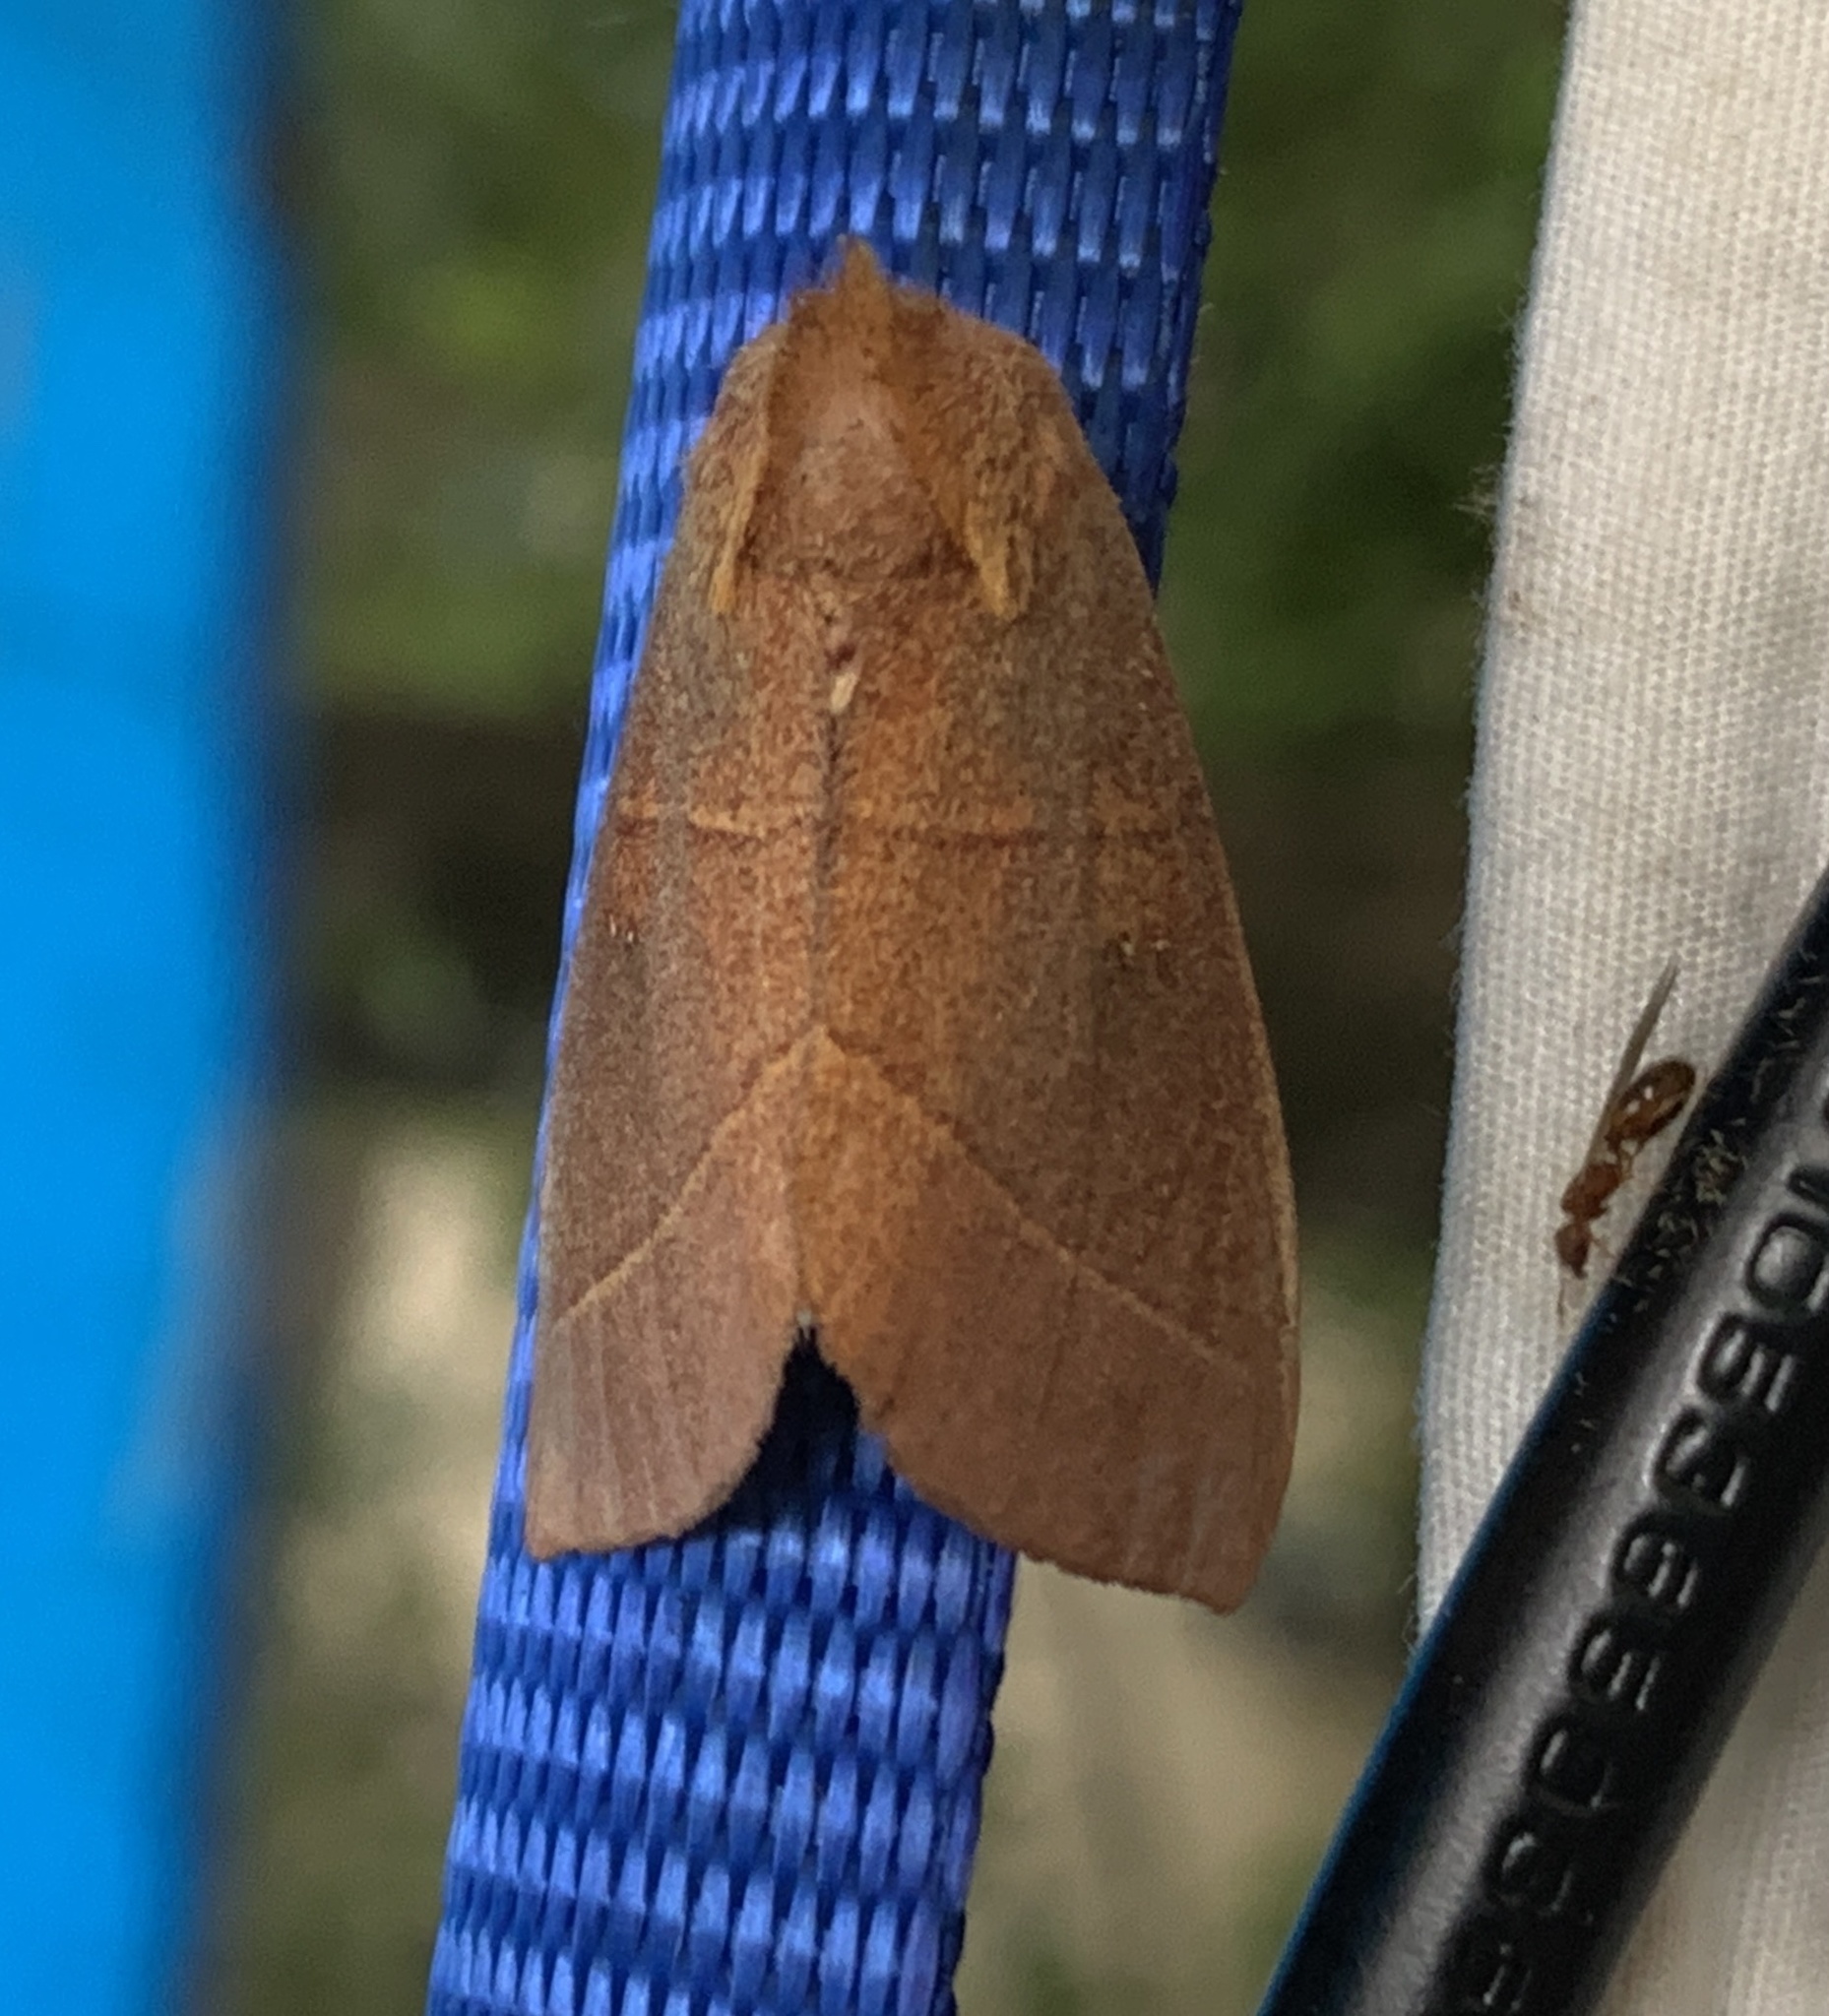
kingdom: Animalia
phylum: Arthropoda
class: Insecta
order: Lepidoptera
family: Notodontidae
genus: Nadata
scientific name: Nadata gibbosa
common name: White-dotted prominent
